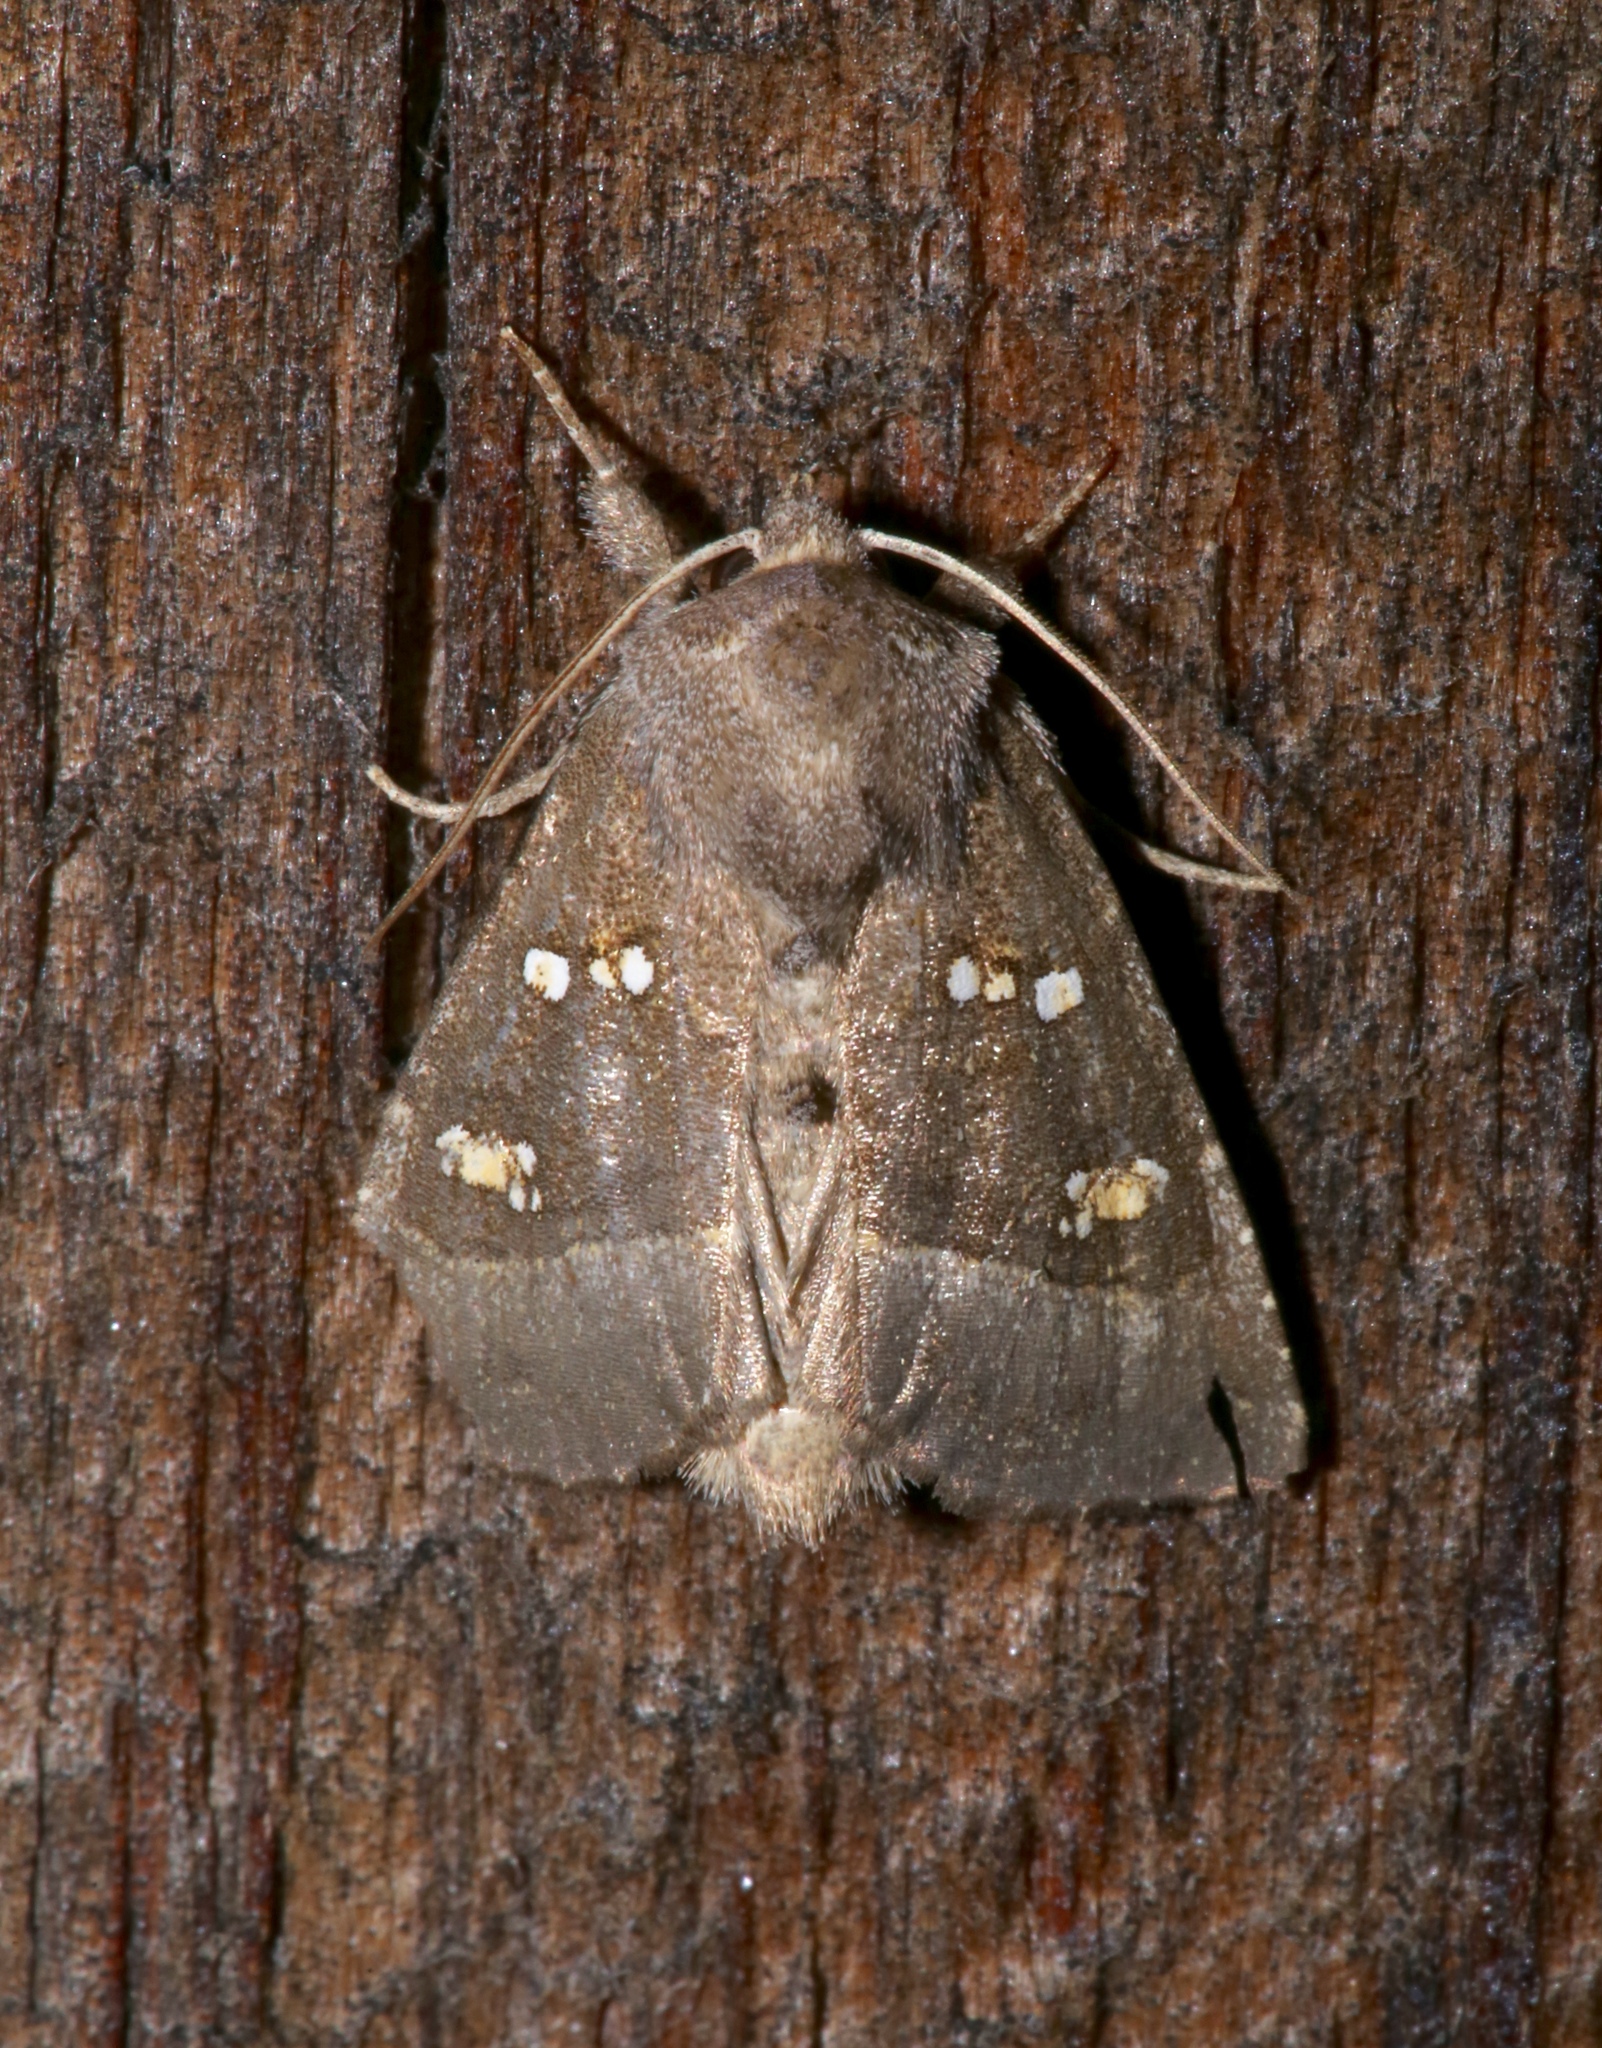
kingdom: Animalia
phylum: Arthropoda
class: Insecta
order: Lepidoptera
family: Noctuidae
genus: Papaipema
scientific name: Papaipema nebris
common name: Stalk borer
